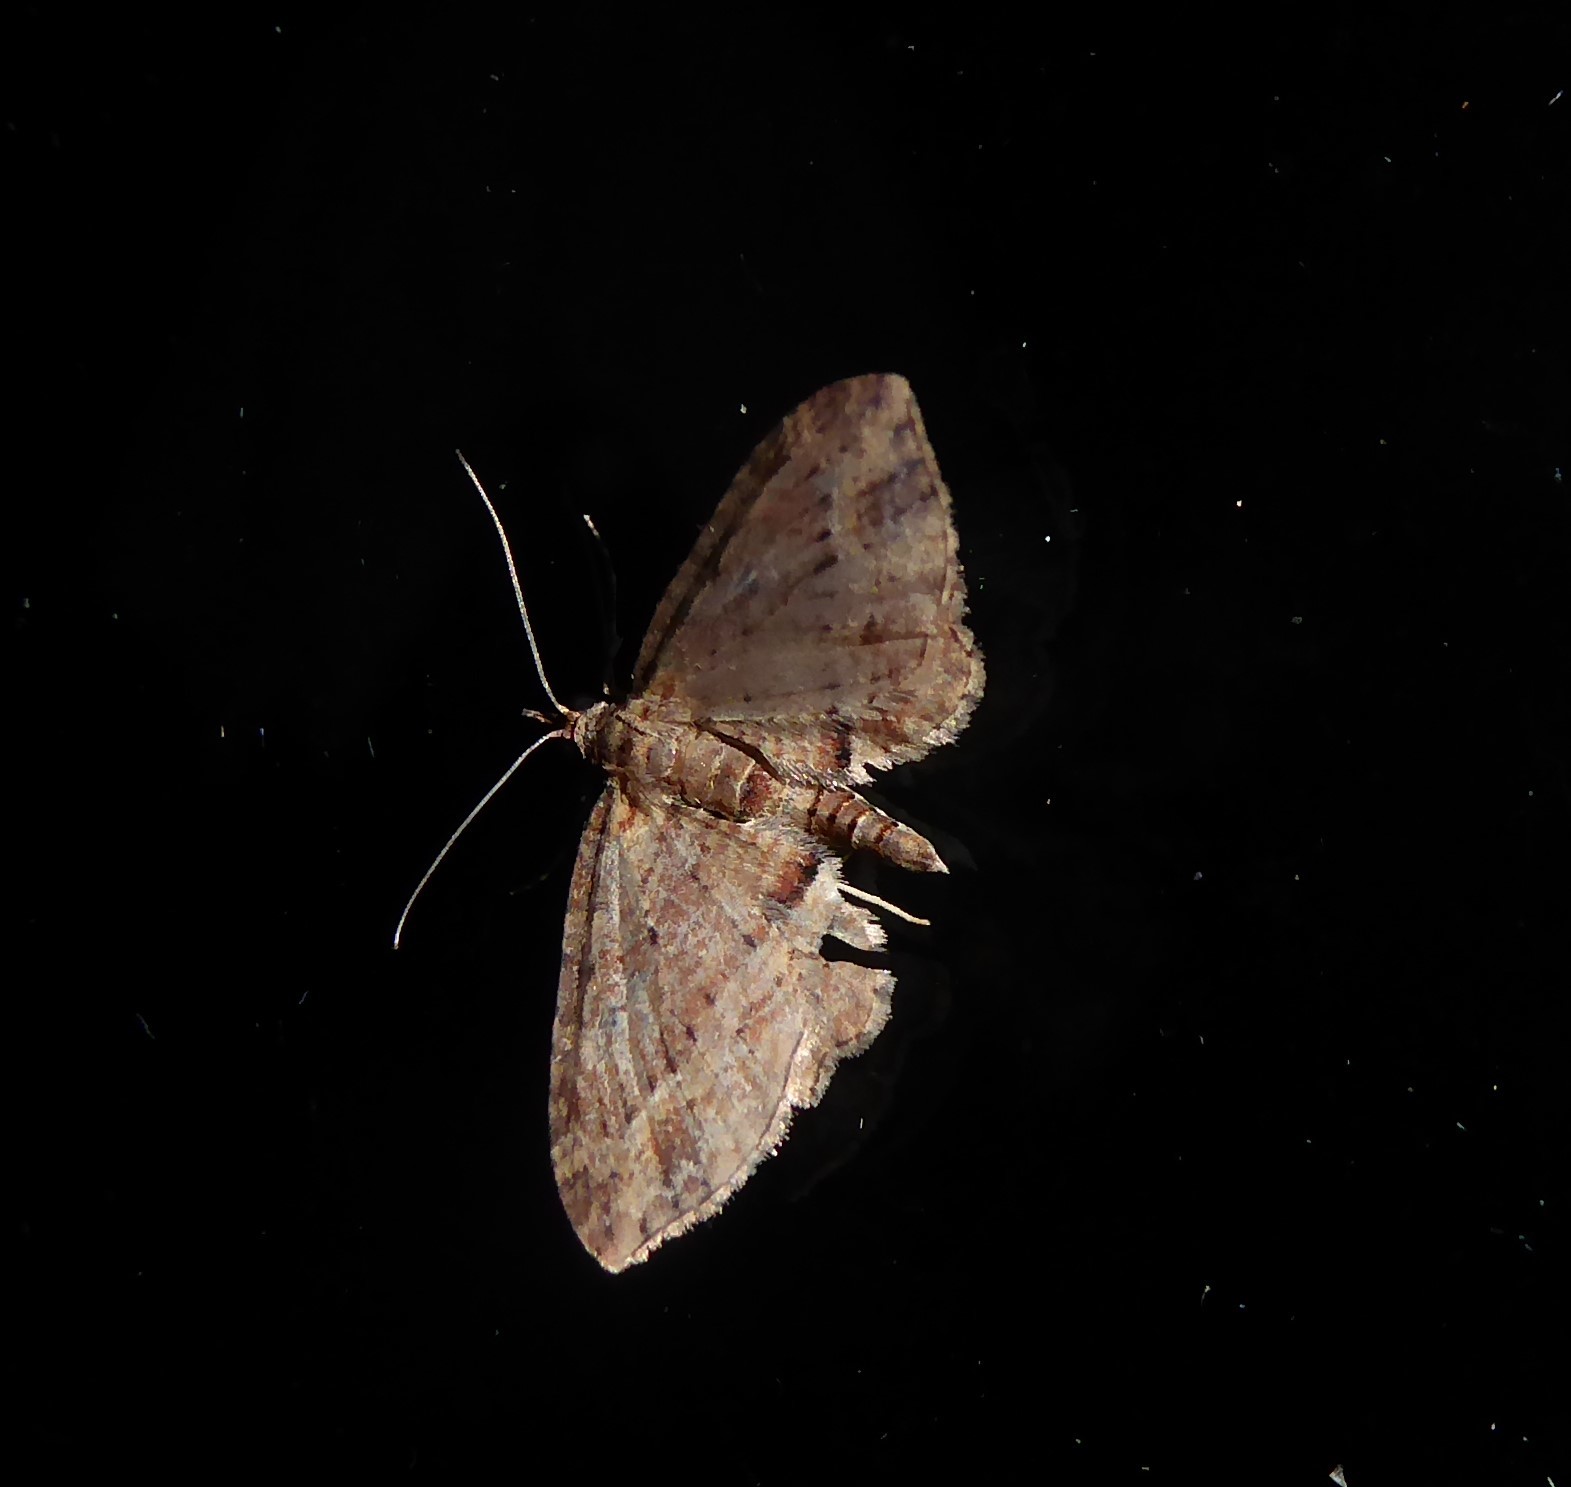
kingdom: Animalia
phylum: Arthropoda
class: Insecta
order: Lepidoptera
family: Geometridae
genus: Chloroclystis
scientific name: Chloroclystis filata
